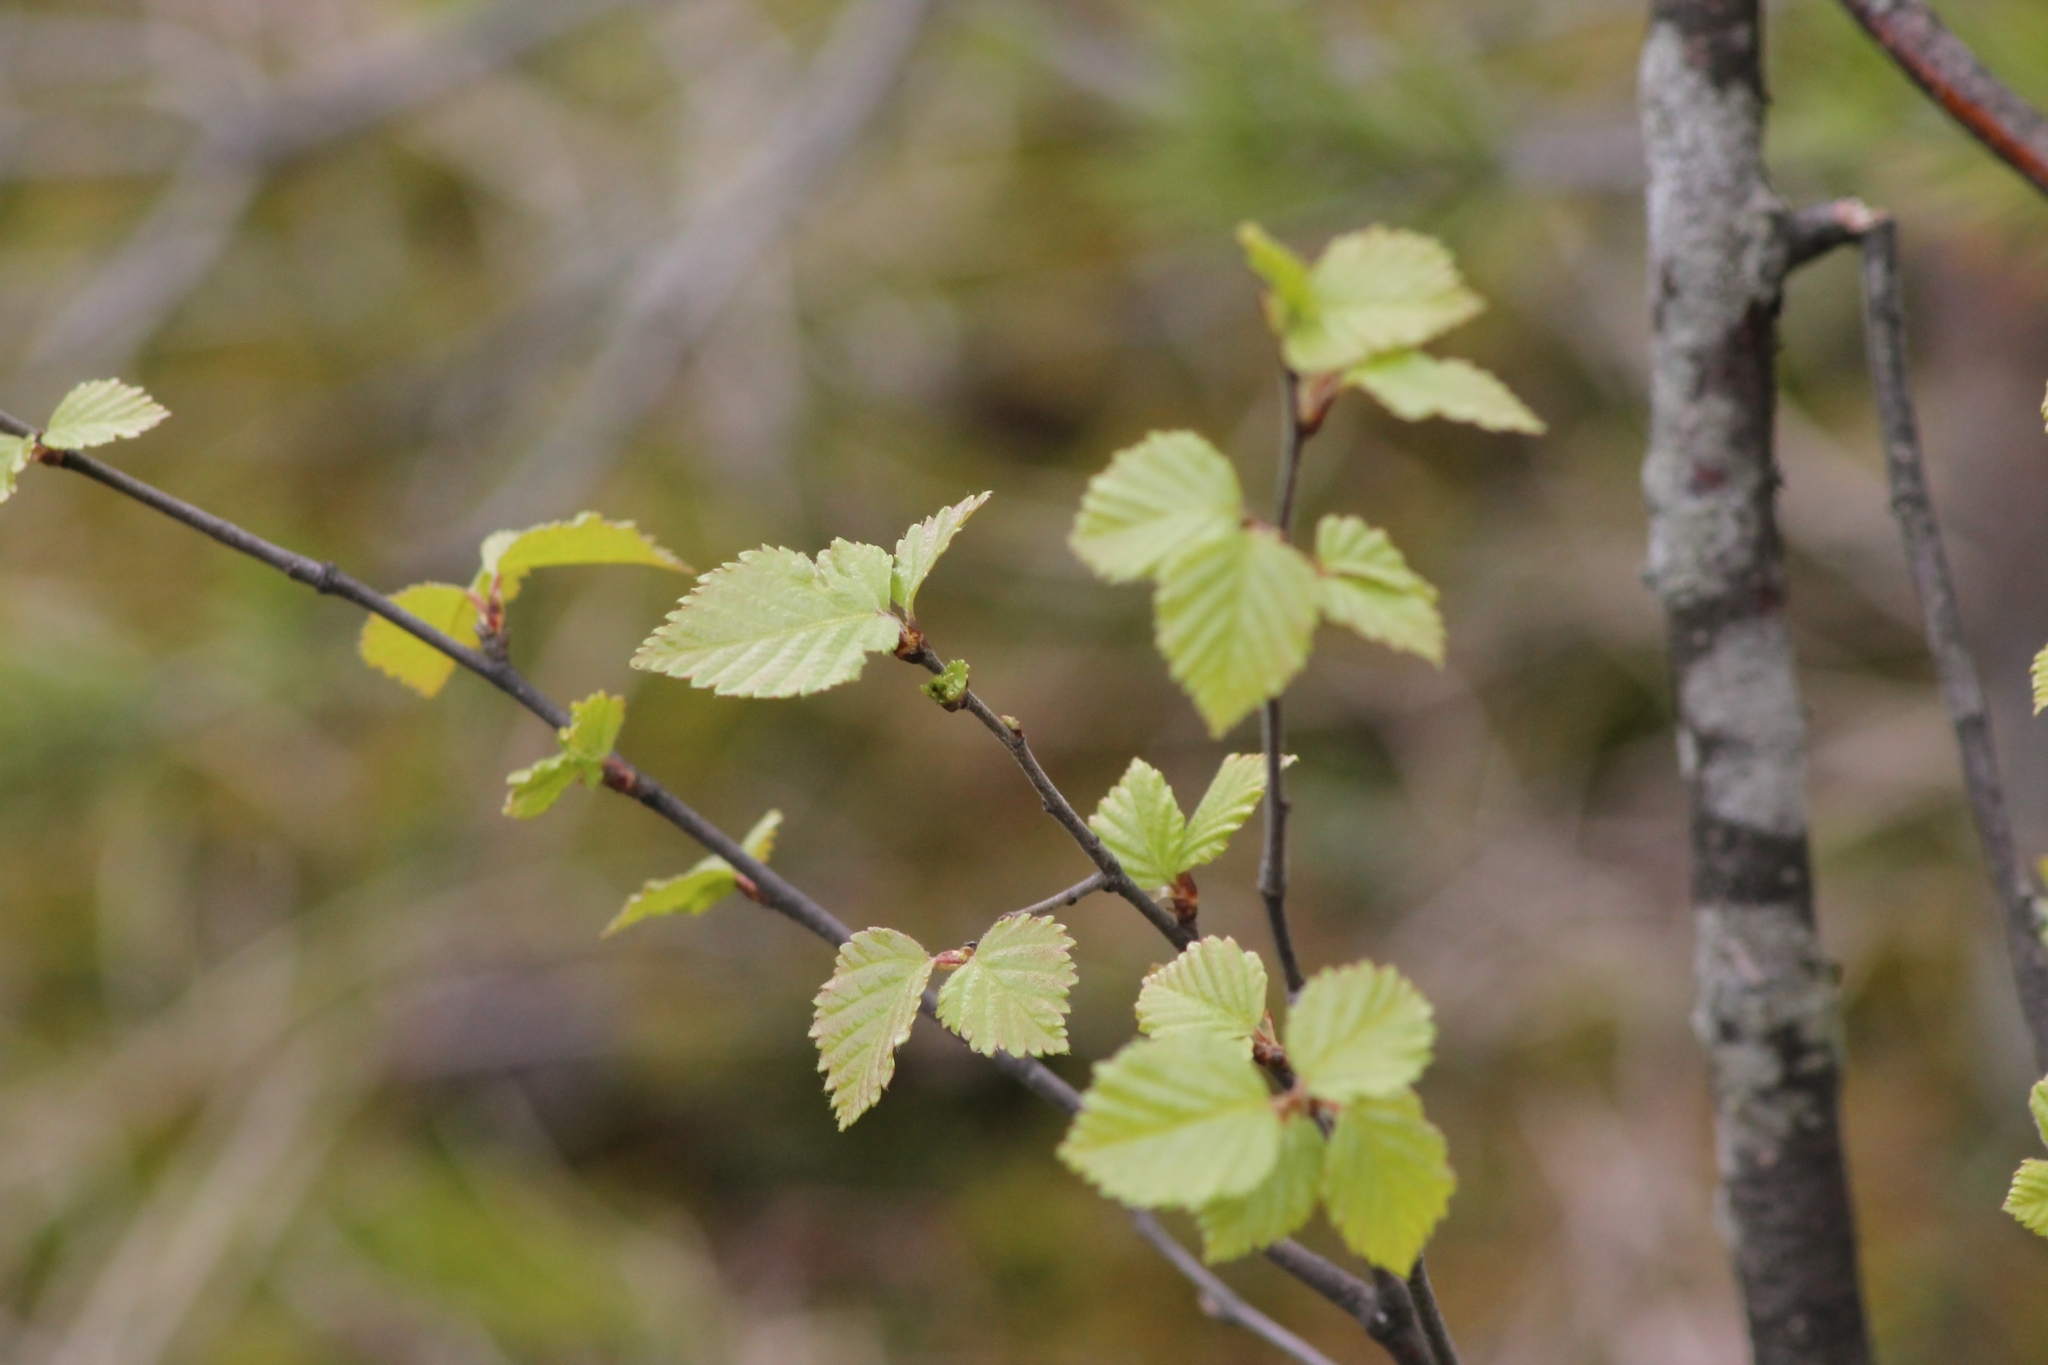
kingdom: Plantae
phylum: Tracheophyta
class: Magnoliopsida
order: Fagales
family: Betulaceae
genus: Betula
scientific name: Betula pubescens
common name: Downy birch
